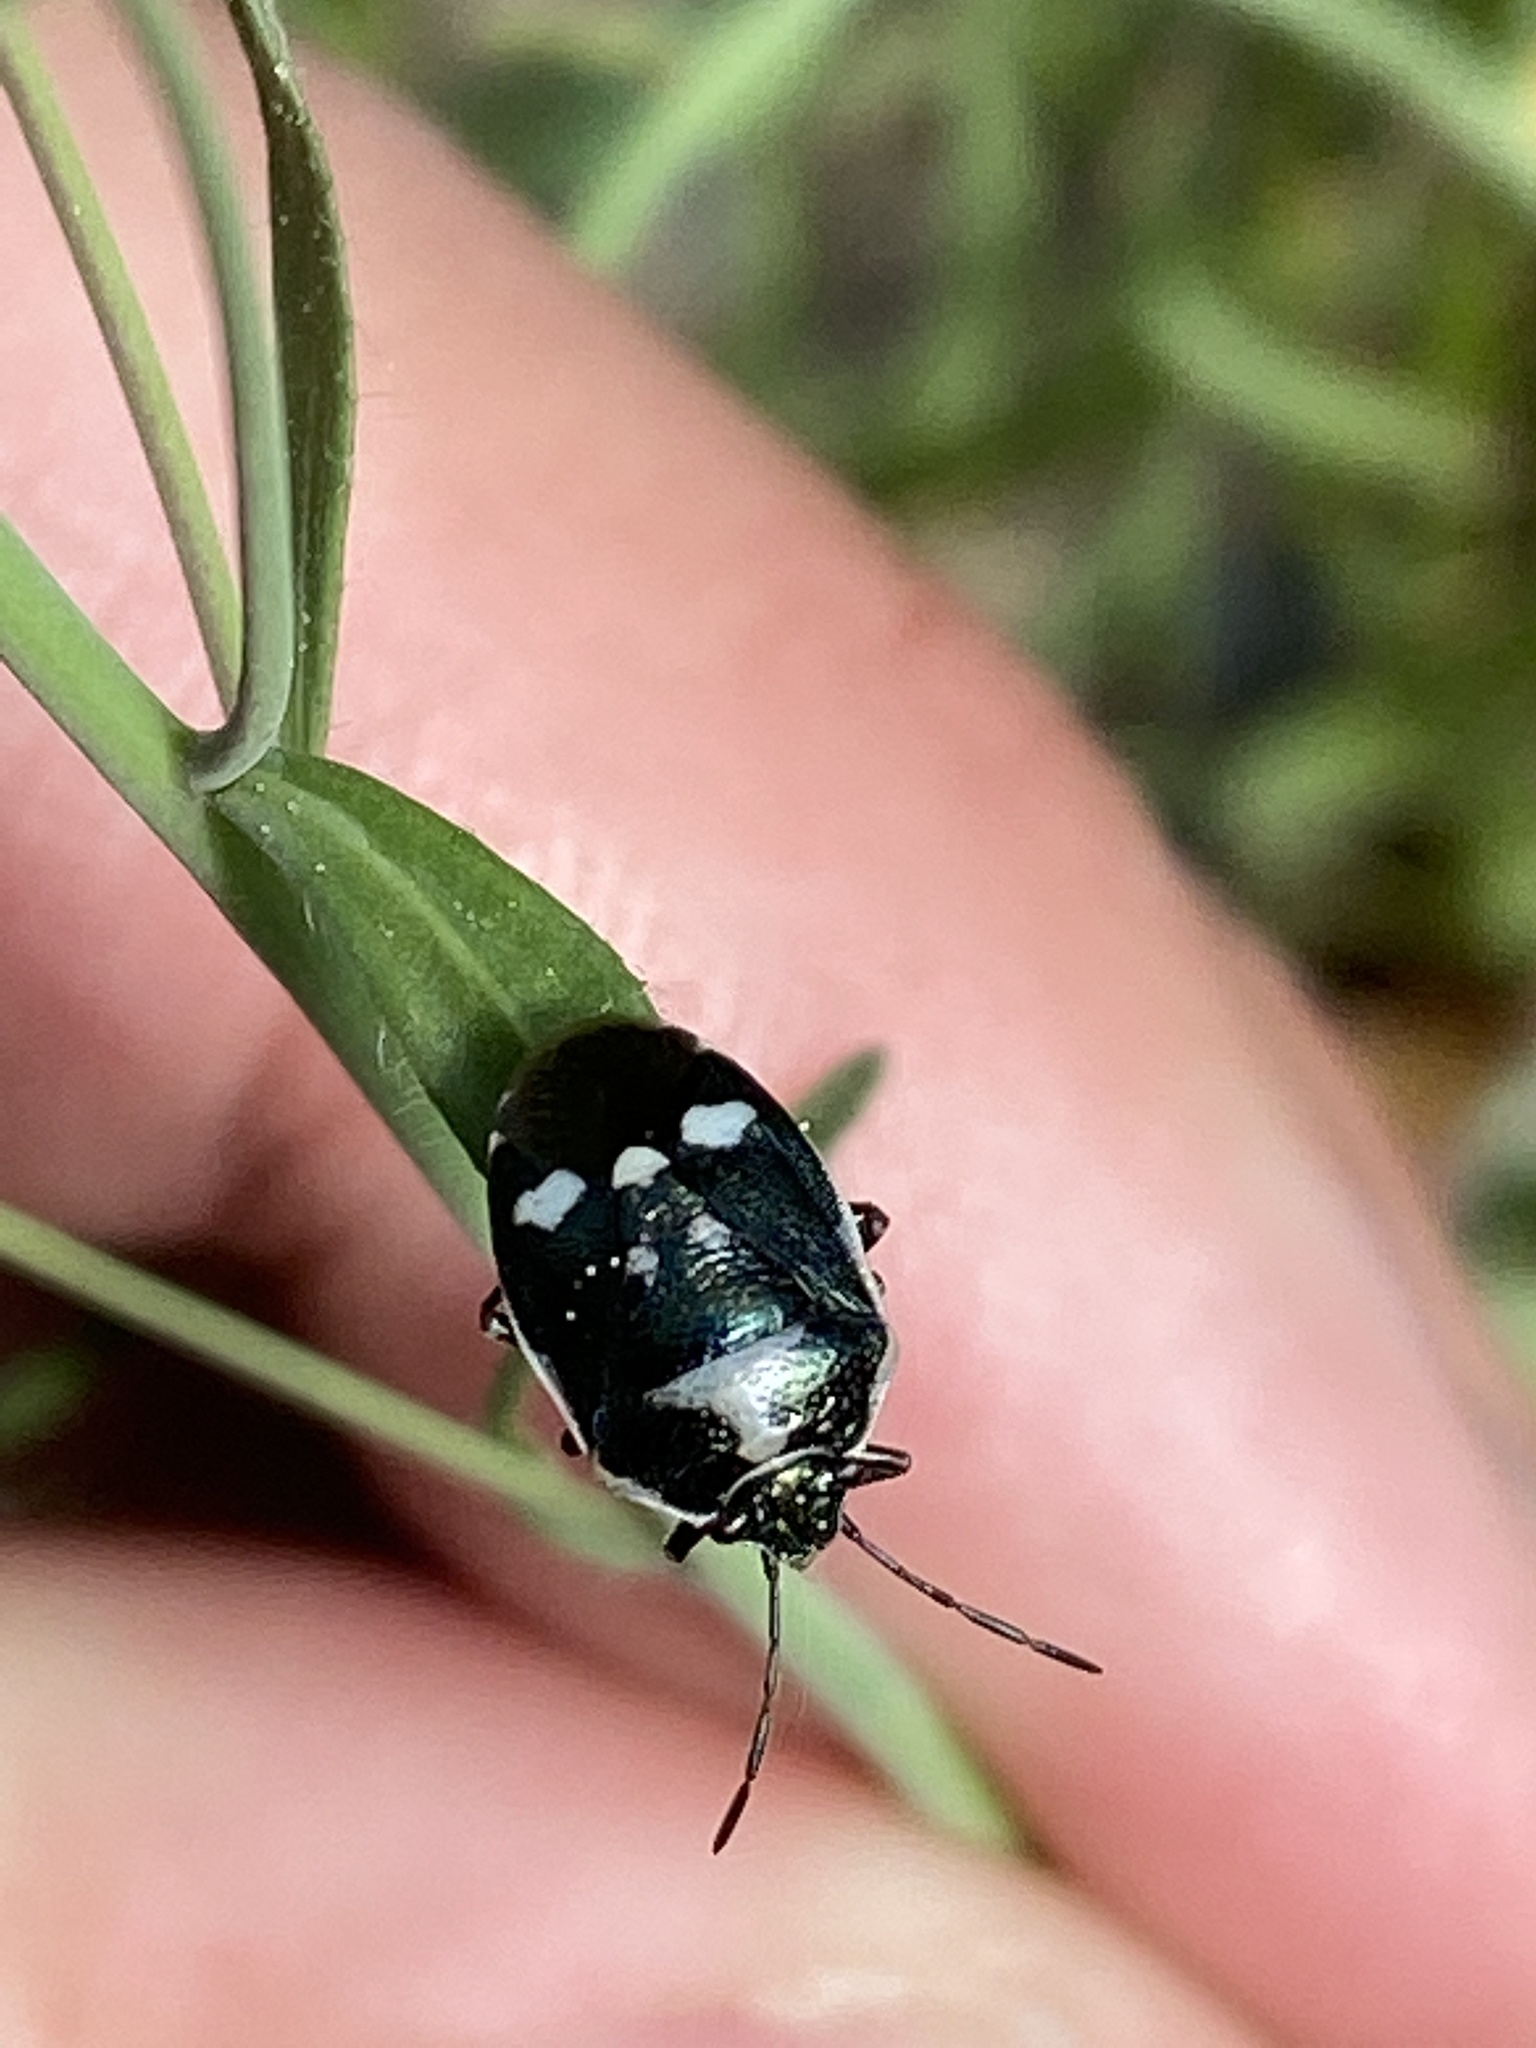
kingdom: Animalia
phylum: Arthropoda
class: Insecta
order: Hemiptera
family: Pentatomidae
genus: Eurydema
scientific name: Eurydema oleracea
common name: Cabbage bug
